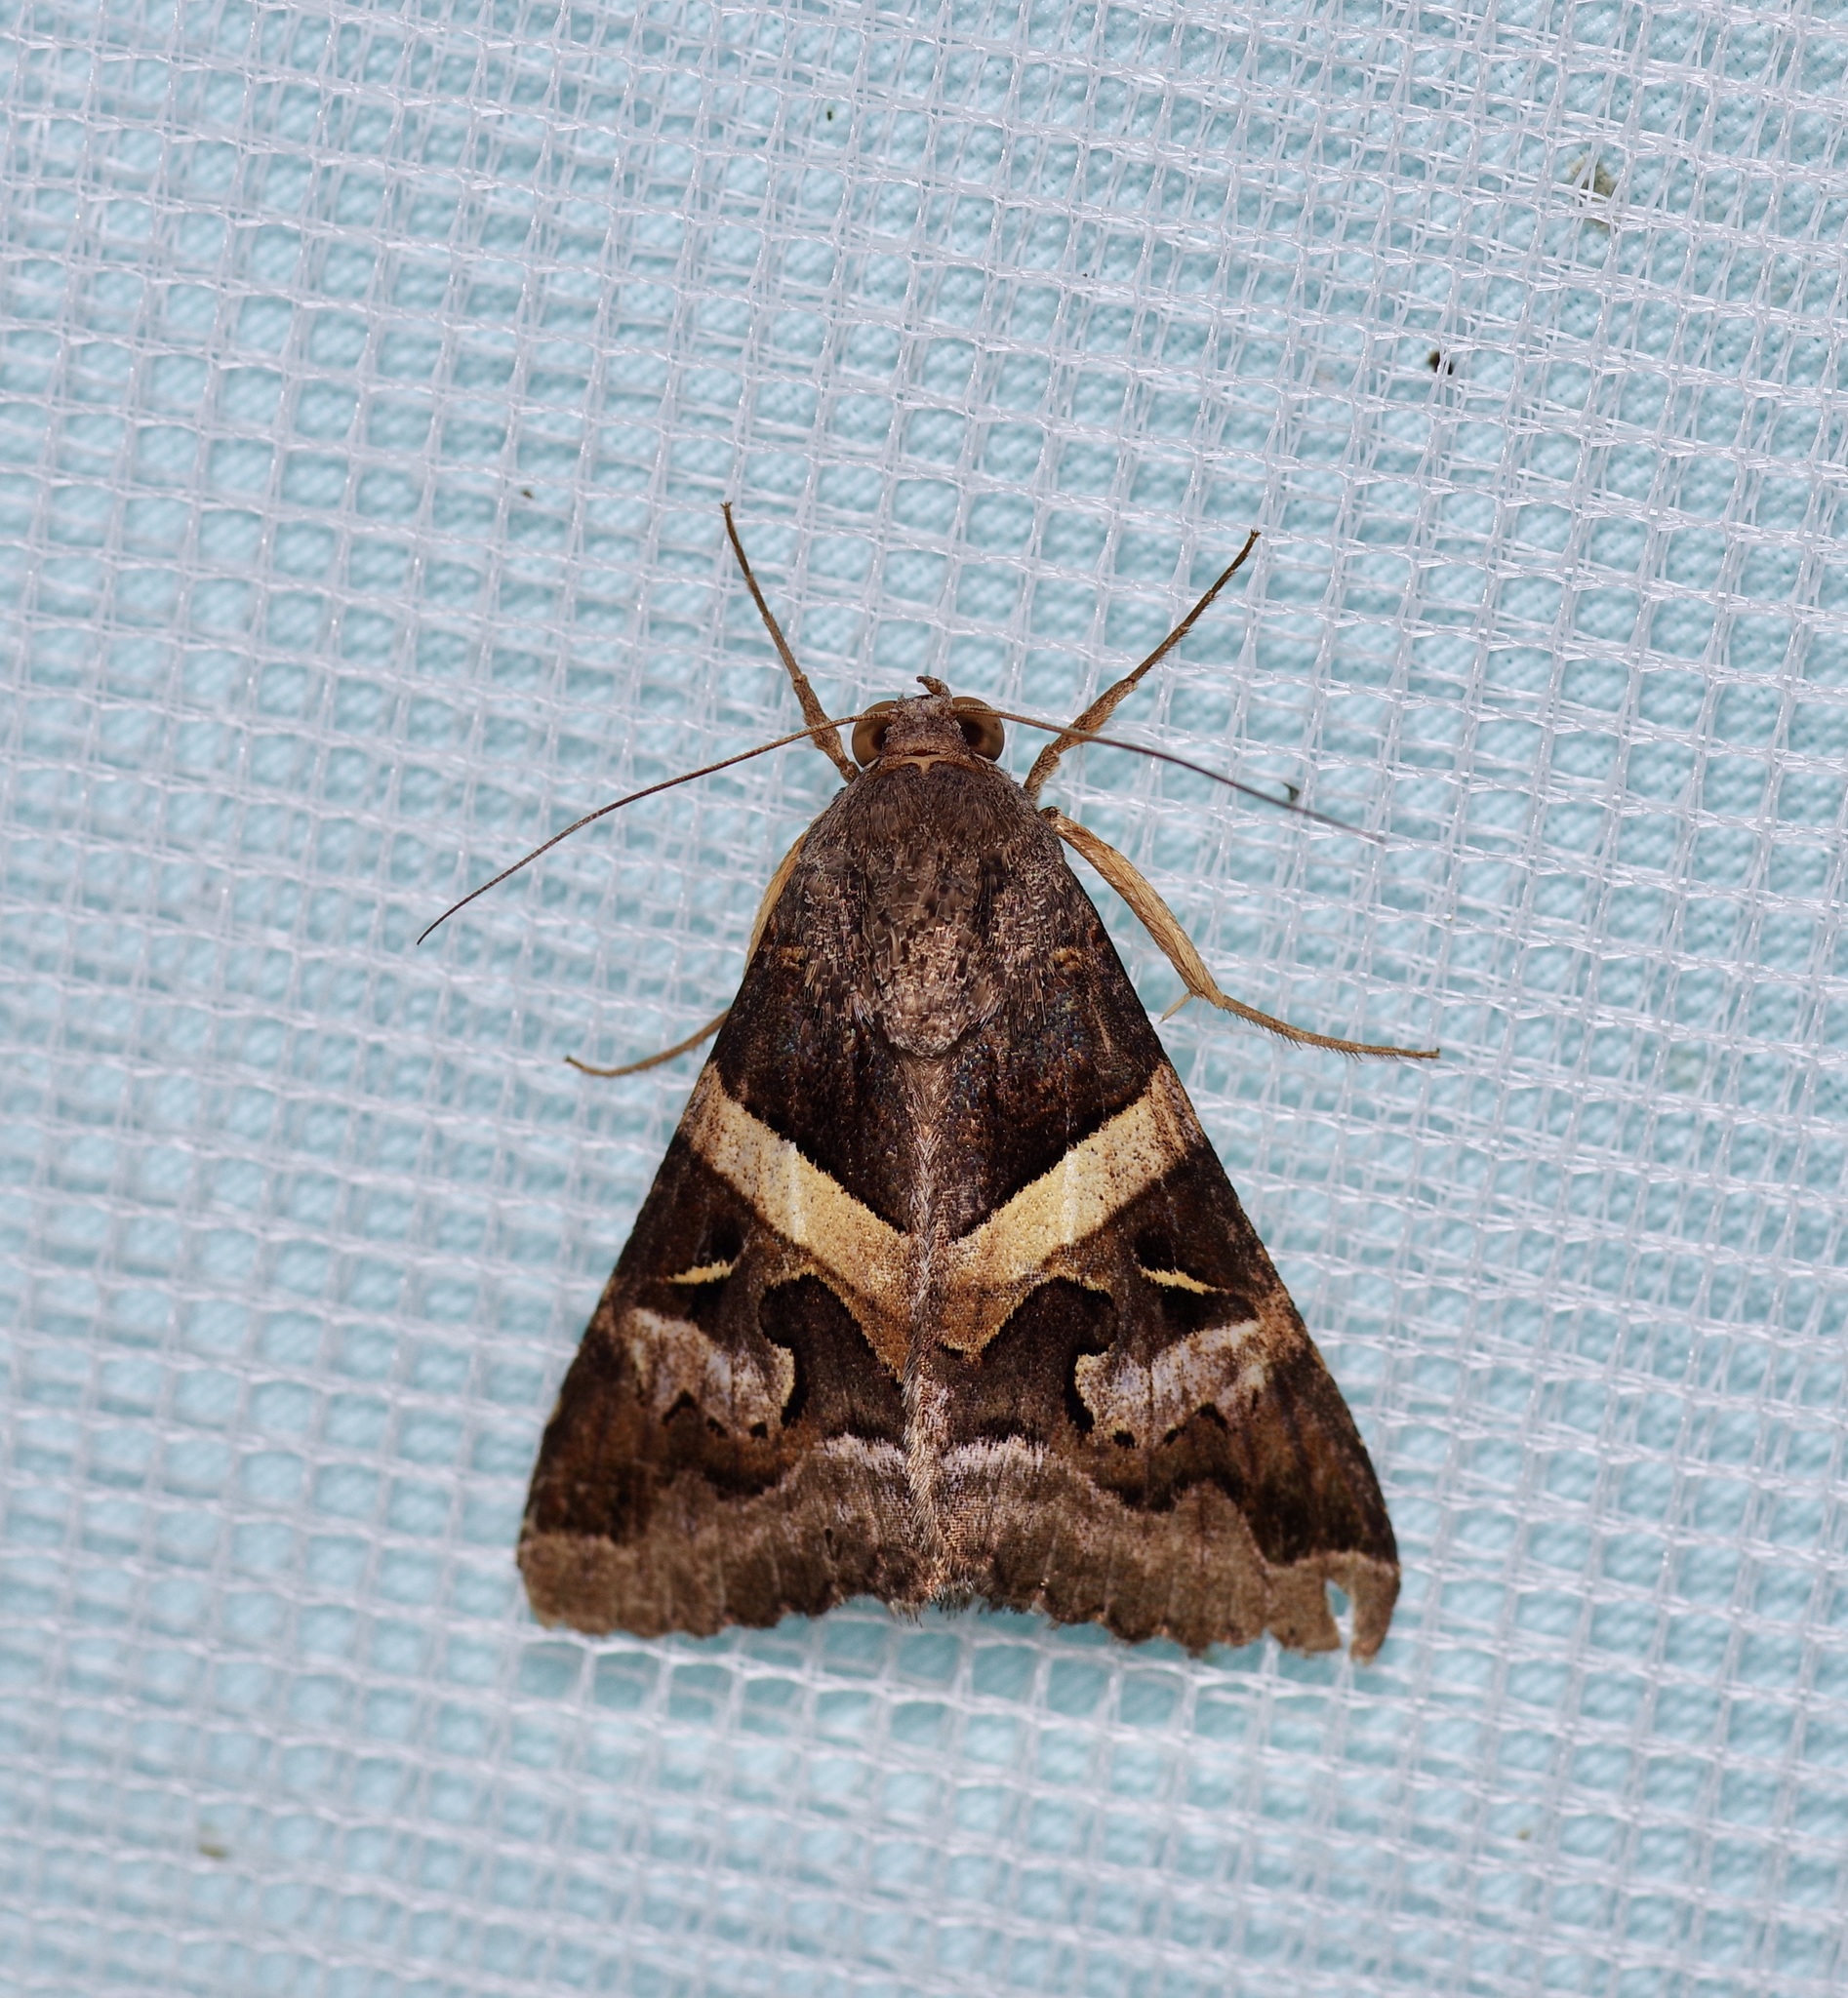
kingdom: Animalia
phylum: Arthropoda
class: Insecta
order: Lepidoptera
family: Erebidae
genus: Melipotis
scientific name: Melipotis indomita
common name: Moth
